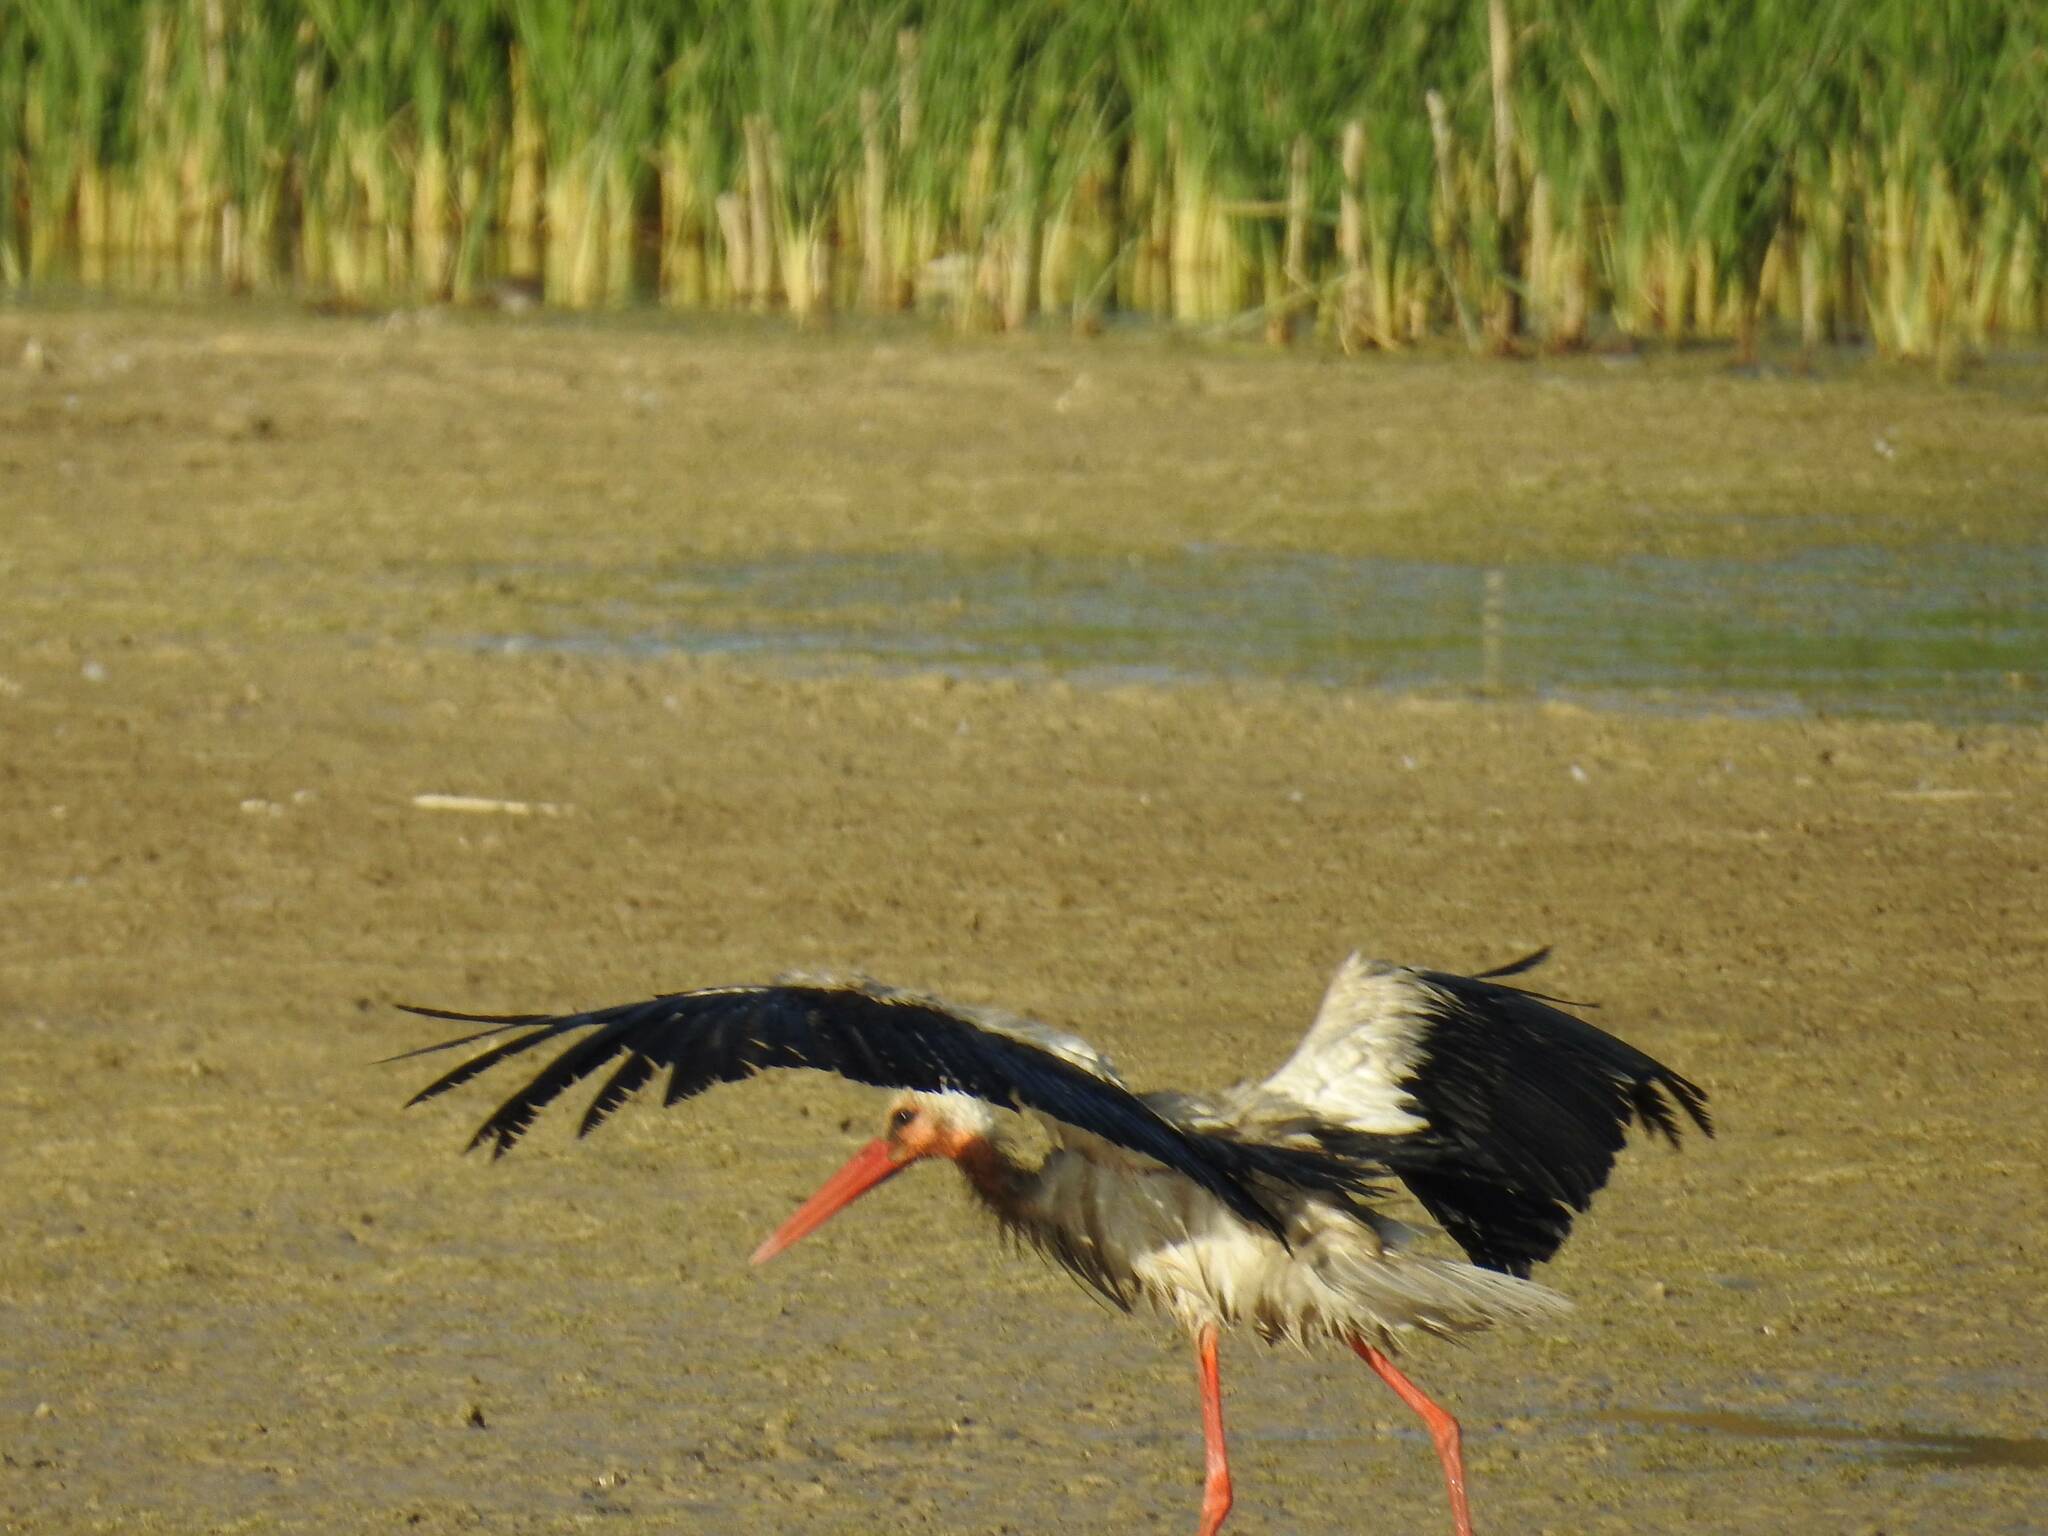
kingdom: Animalia
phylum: Chordata
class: Aves
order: Ciconiiformes
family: Ciconiidae
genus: Ciconia
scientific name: Ciconia ciconia
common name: White stork
